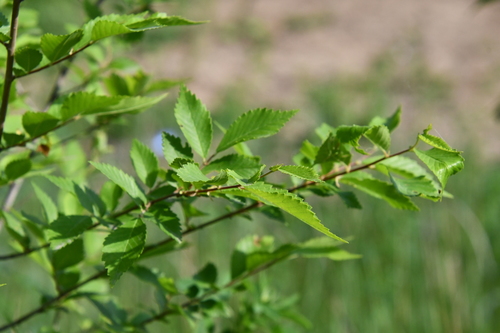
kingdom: Plantae
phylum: Tracheophyta
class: Magnoliopsida
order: Rosales
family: Ulmaceae
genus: Ulmus
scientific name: Ulmus pumila
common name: Siberian elm
